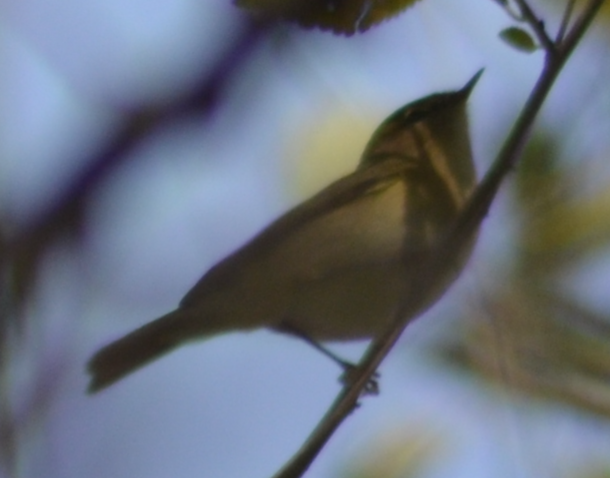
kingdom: Animalia
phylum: Chordata
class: Aves
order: Passeriformes
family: Phylloscopidae
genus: Phylloscopus
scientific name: Phylloscopus collybita
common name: Common chiffchaff
